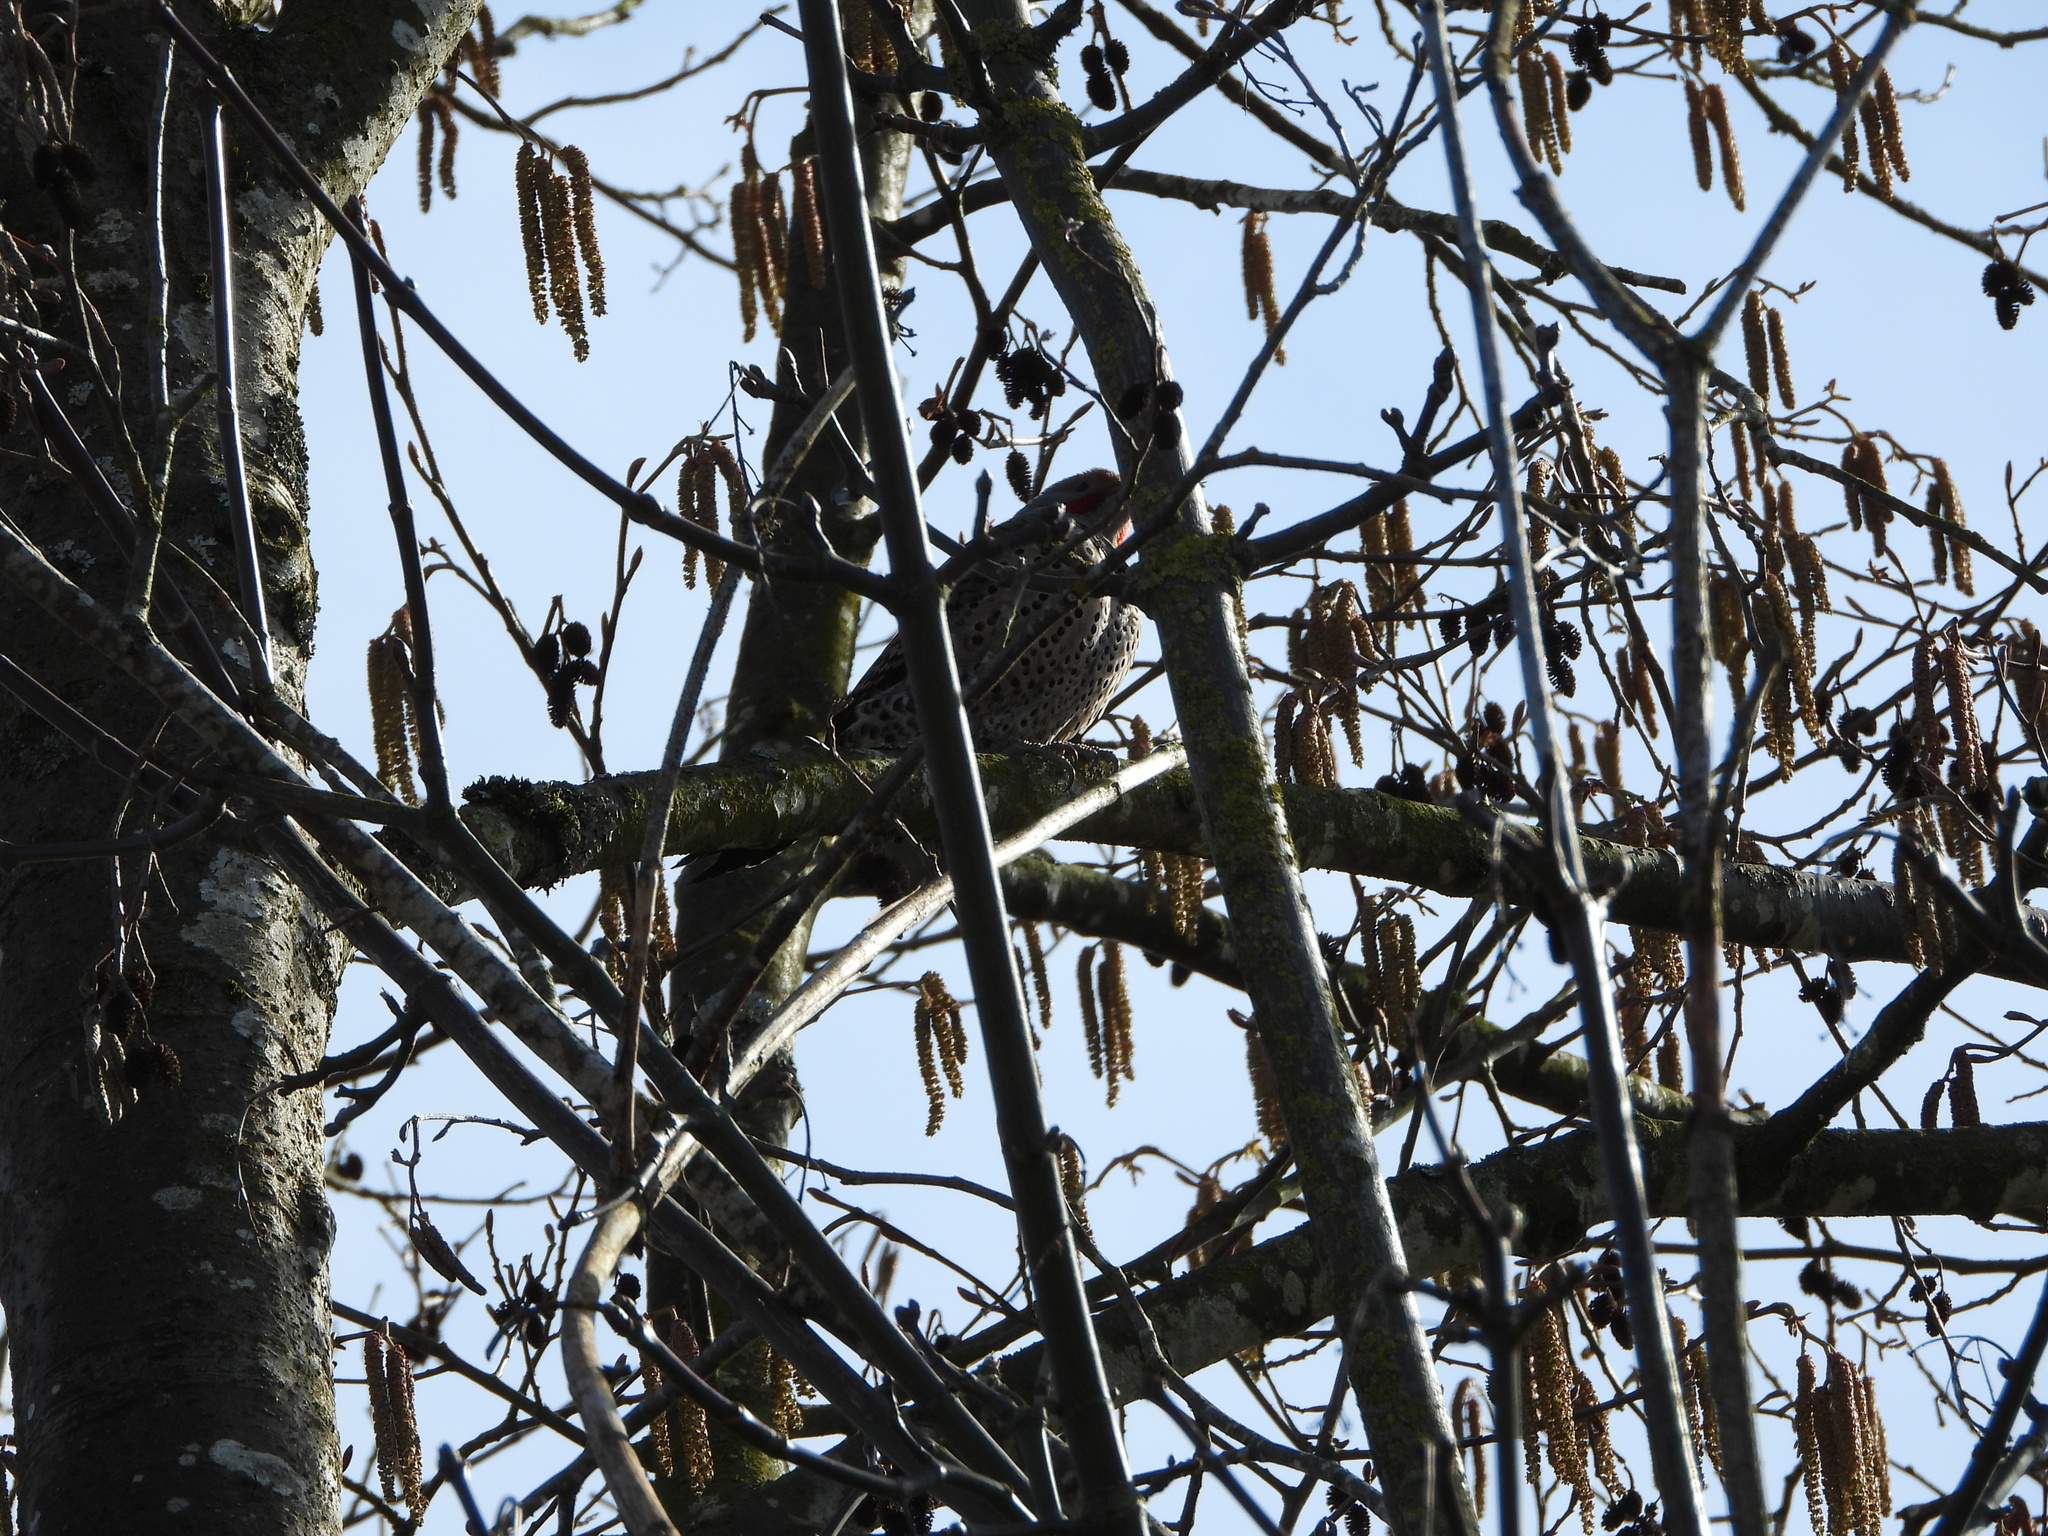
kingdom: Animalia
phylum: Chordata
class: Aves
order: Piciformes
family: Picidae
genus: Colaptes
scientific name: Colaptes
